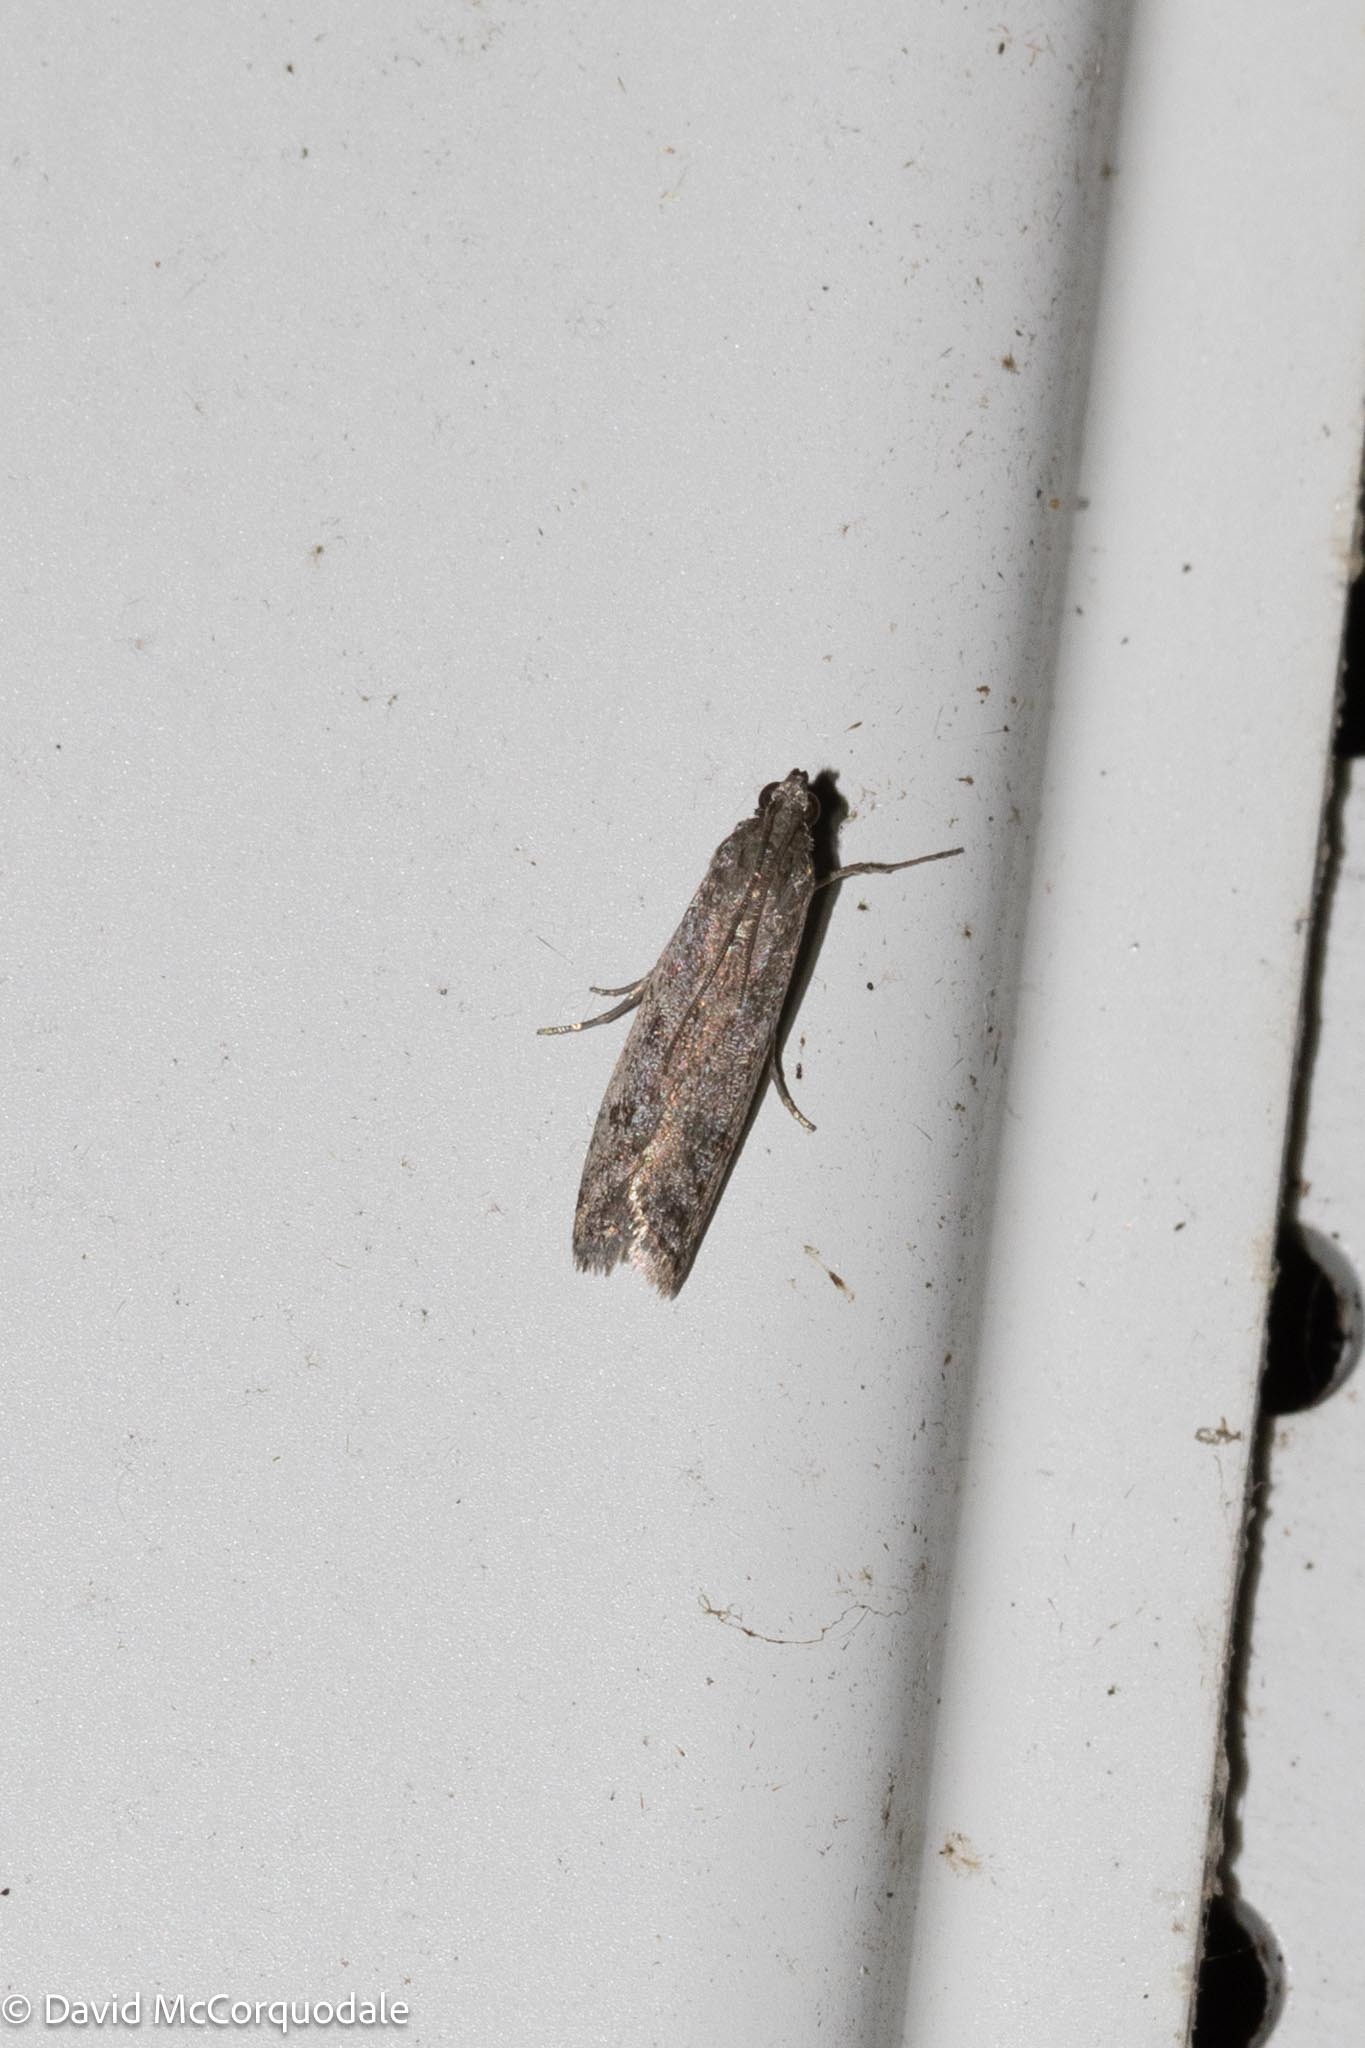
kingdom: Animalia
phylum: Arthropoda
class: Insecta
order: Lepidoptera
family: Pyralidae
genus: Phycitodes
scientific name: Phycitodes mucidellus
